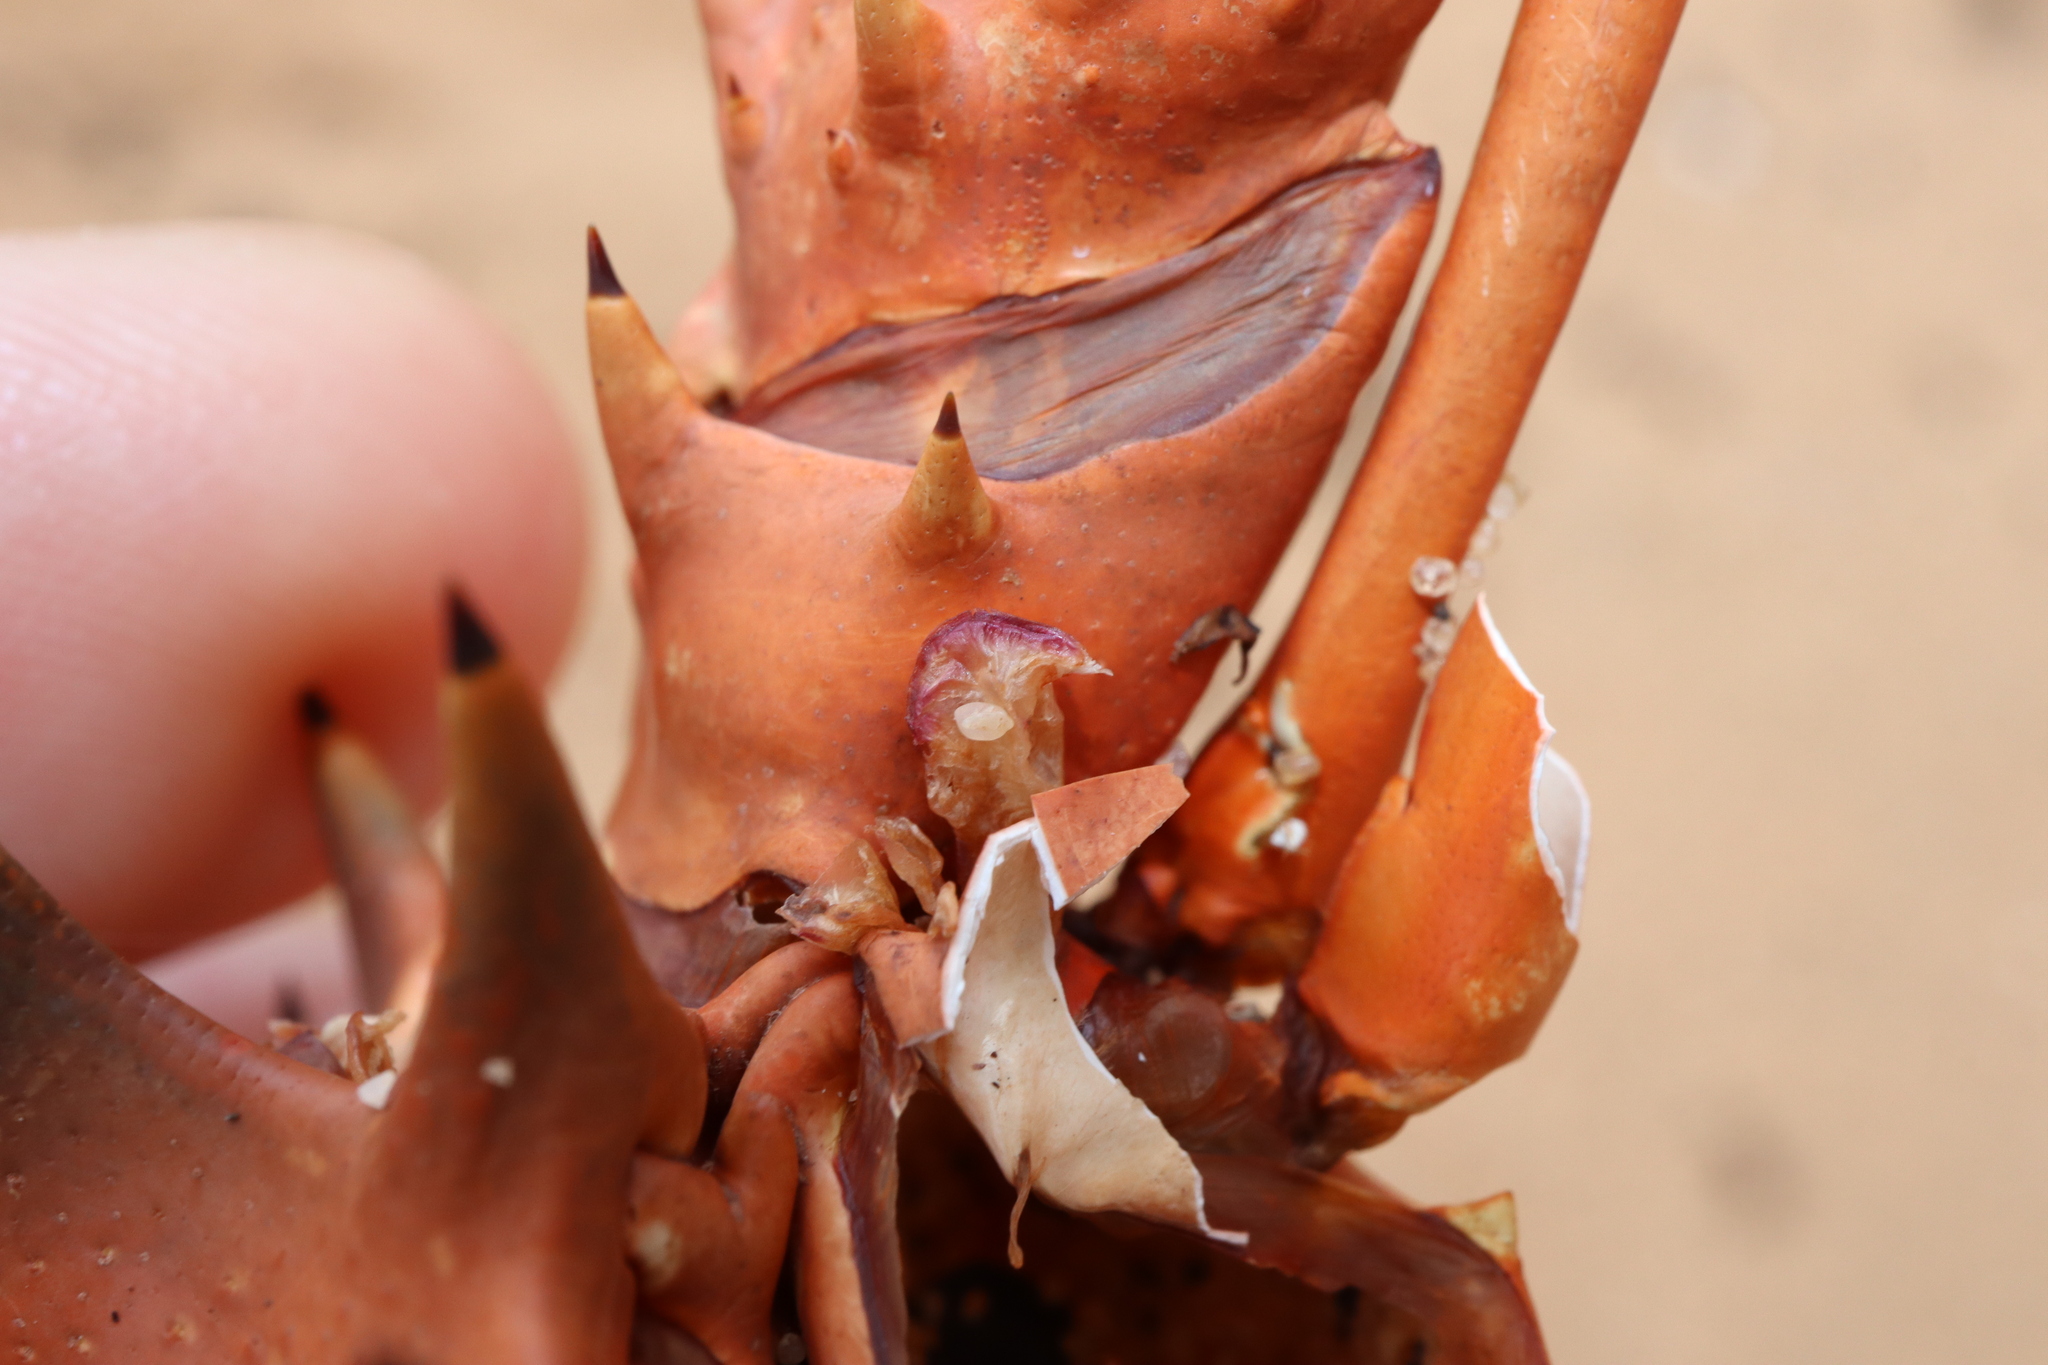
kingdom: Animalia
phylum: Arthropoda
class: Maxillopoda
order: Pedunculata
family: Heteralepadidae
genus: Paralepas
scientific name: Paralepas quadrata
